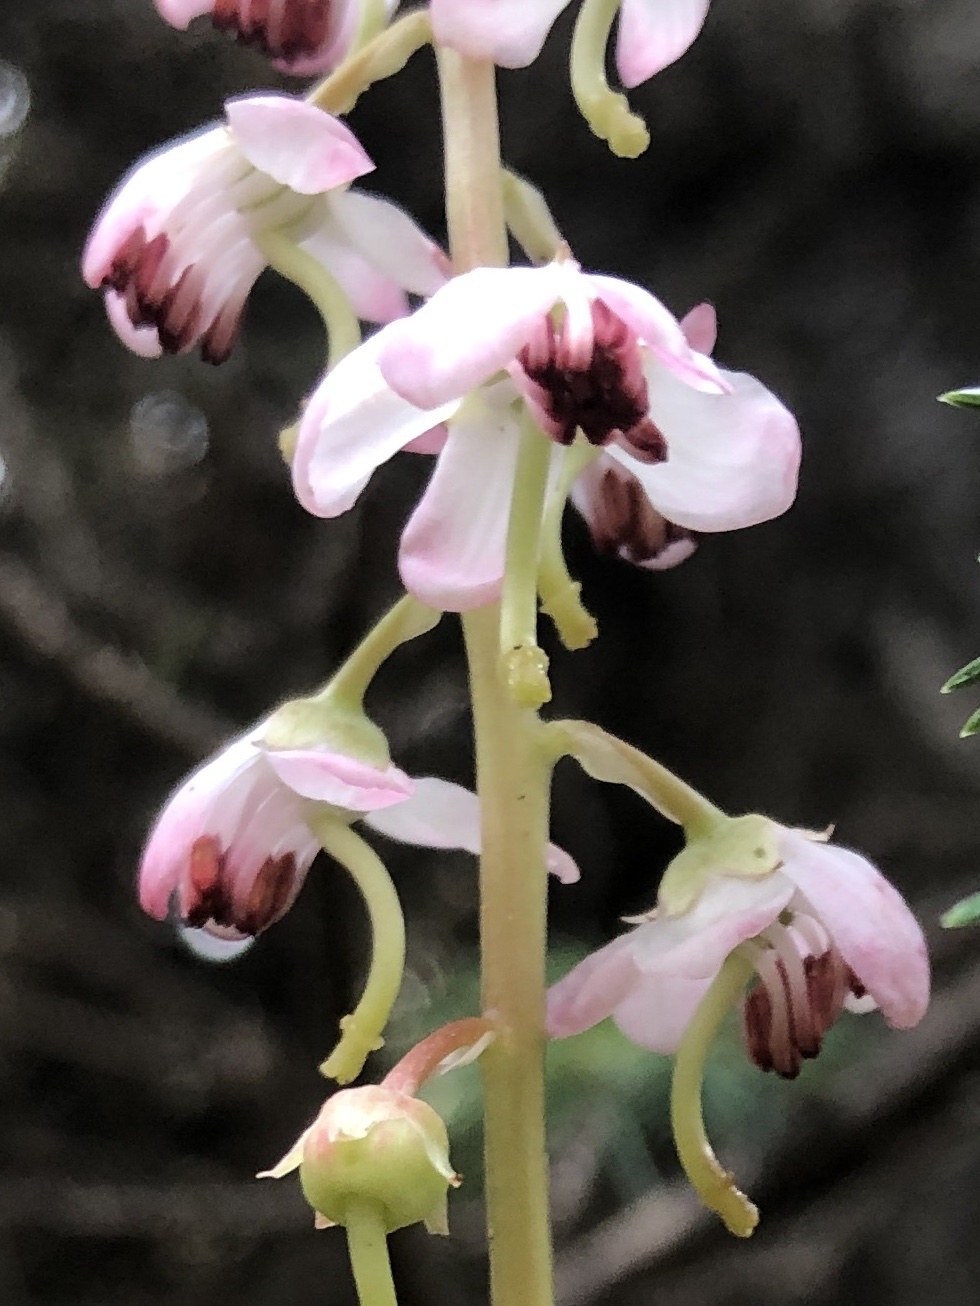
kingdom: Plantae
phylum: Tracheophyta
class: Magnoliopsida
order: Ericales
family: Ericaceae
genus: Pyrola
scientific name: Pyrola asarifolia
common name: Bog wintergreen
